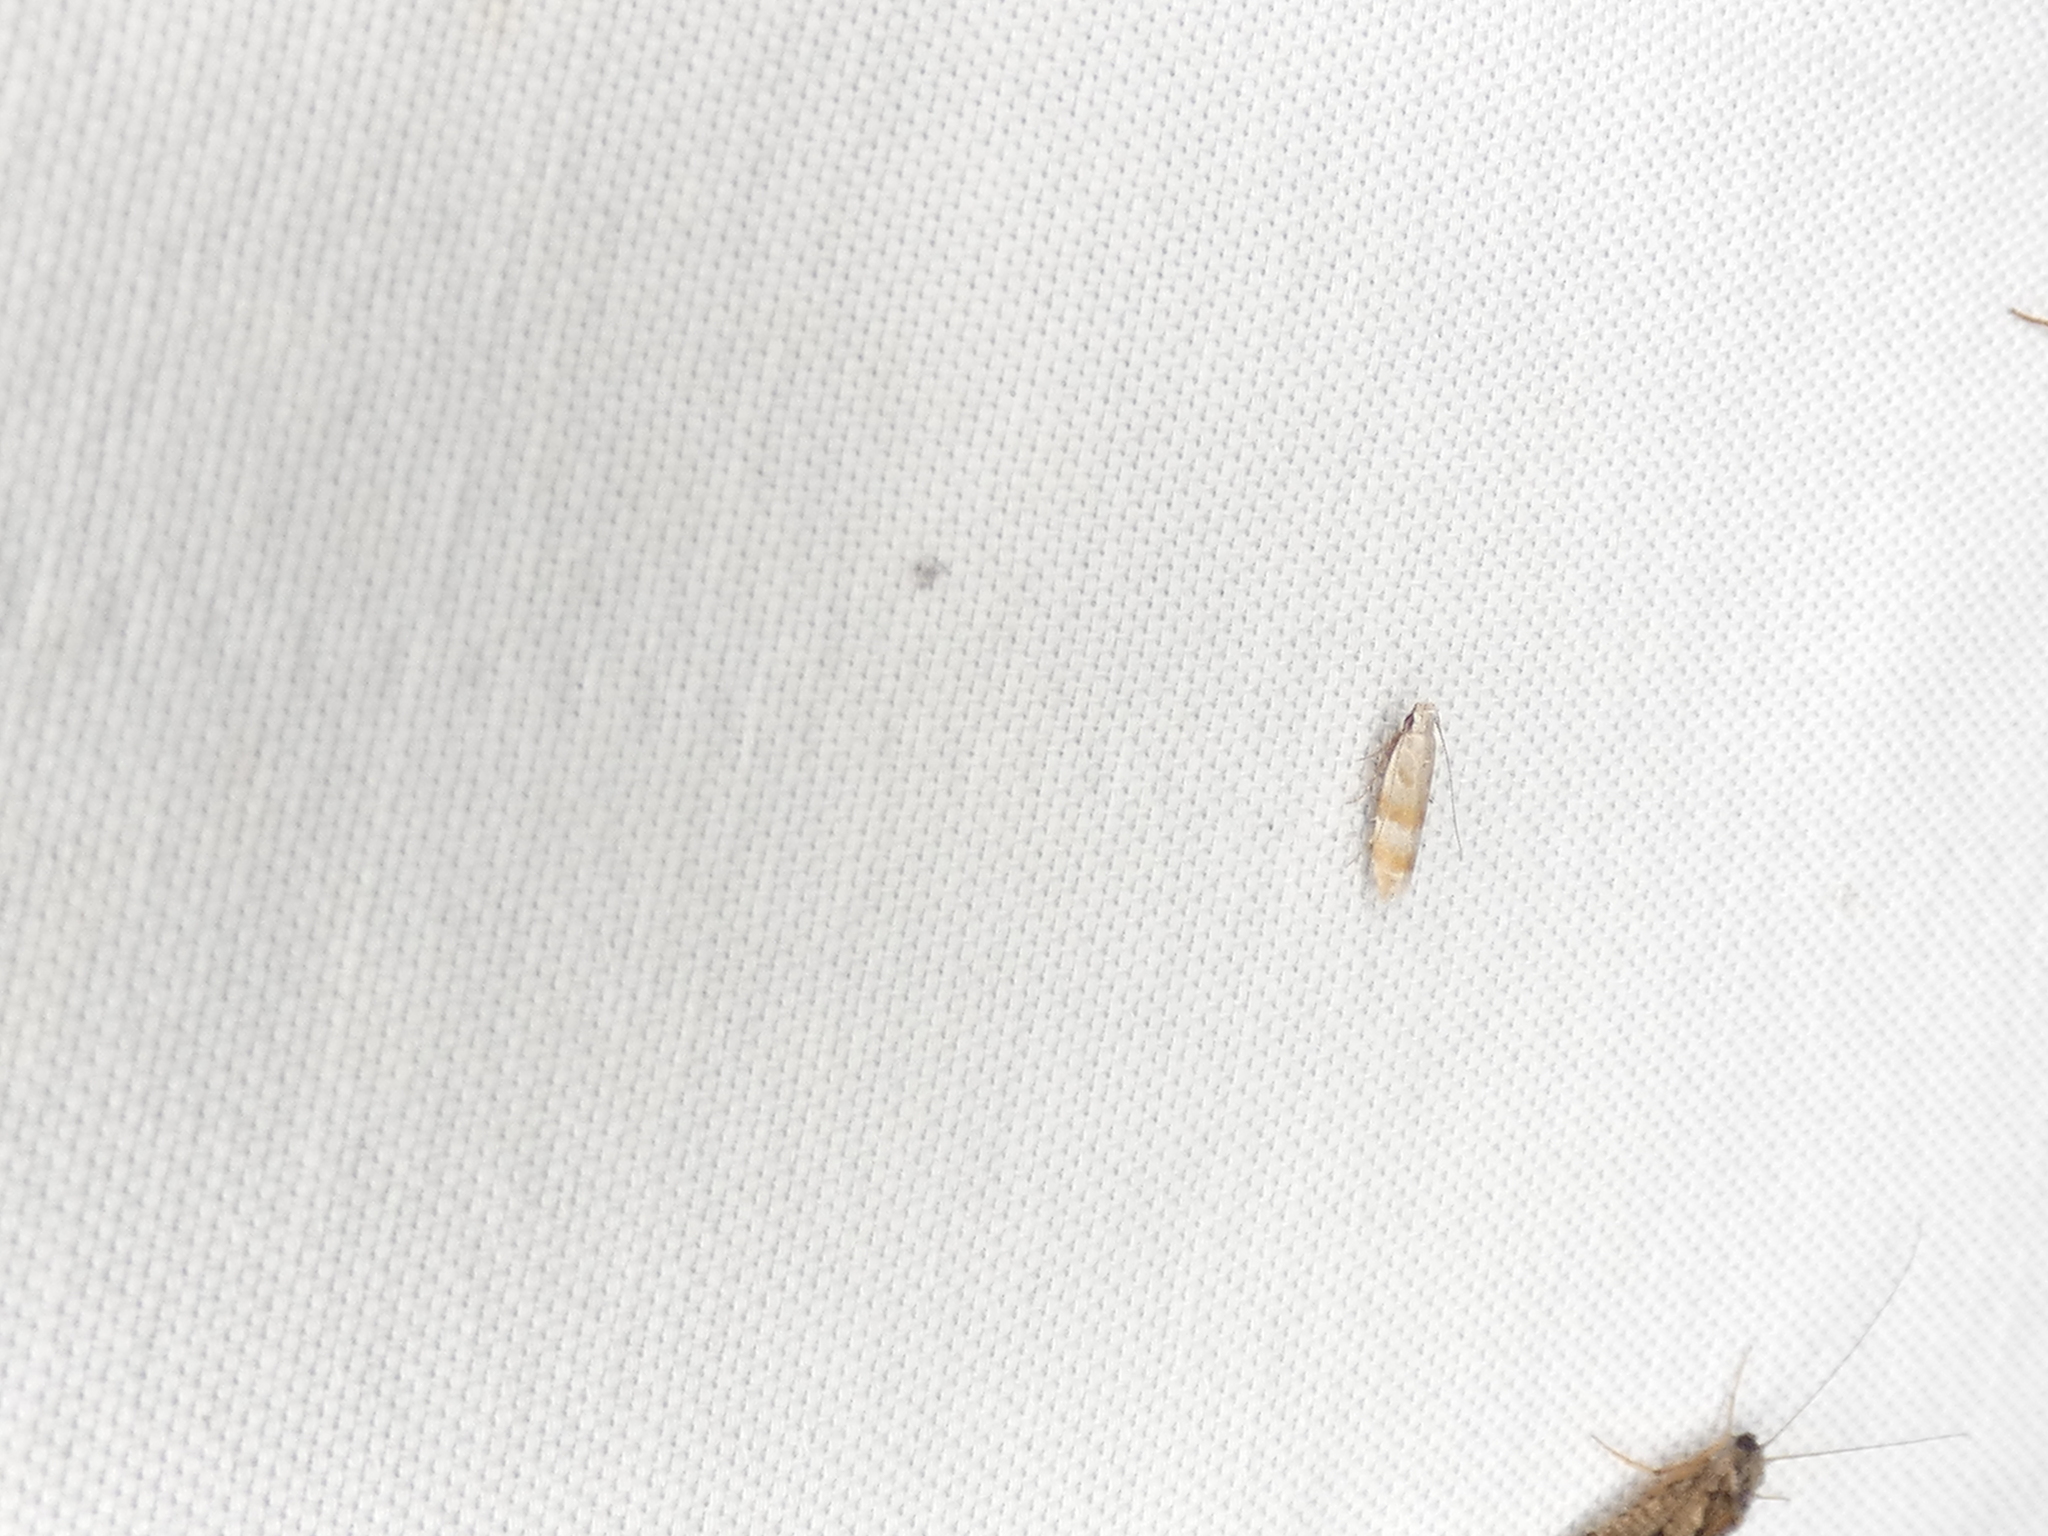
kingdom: Animalia
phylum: Arthropoda
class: Insecta
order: Lepidoptera
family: Gelechiidae
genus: Battaristis
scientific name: Battaristis vittella
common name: Orange stripe-backed moth
